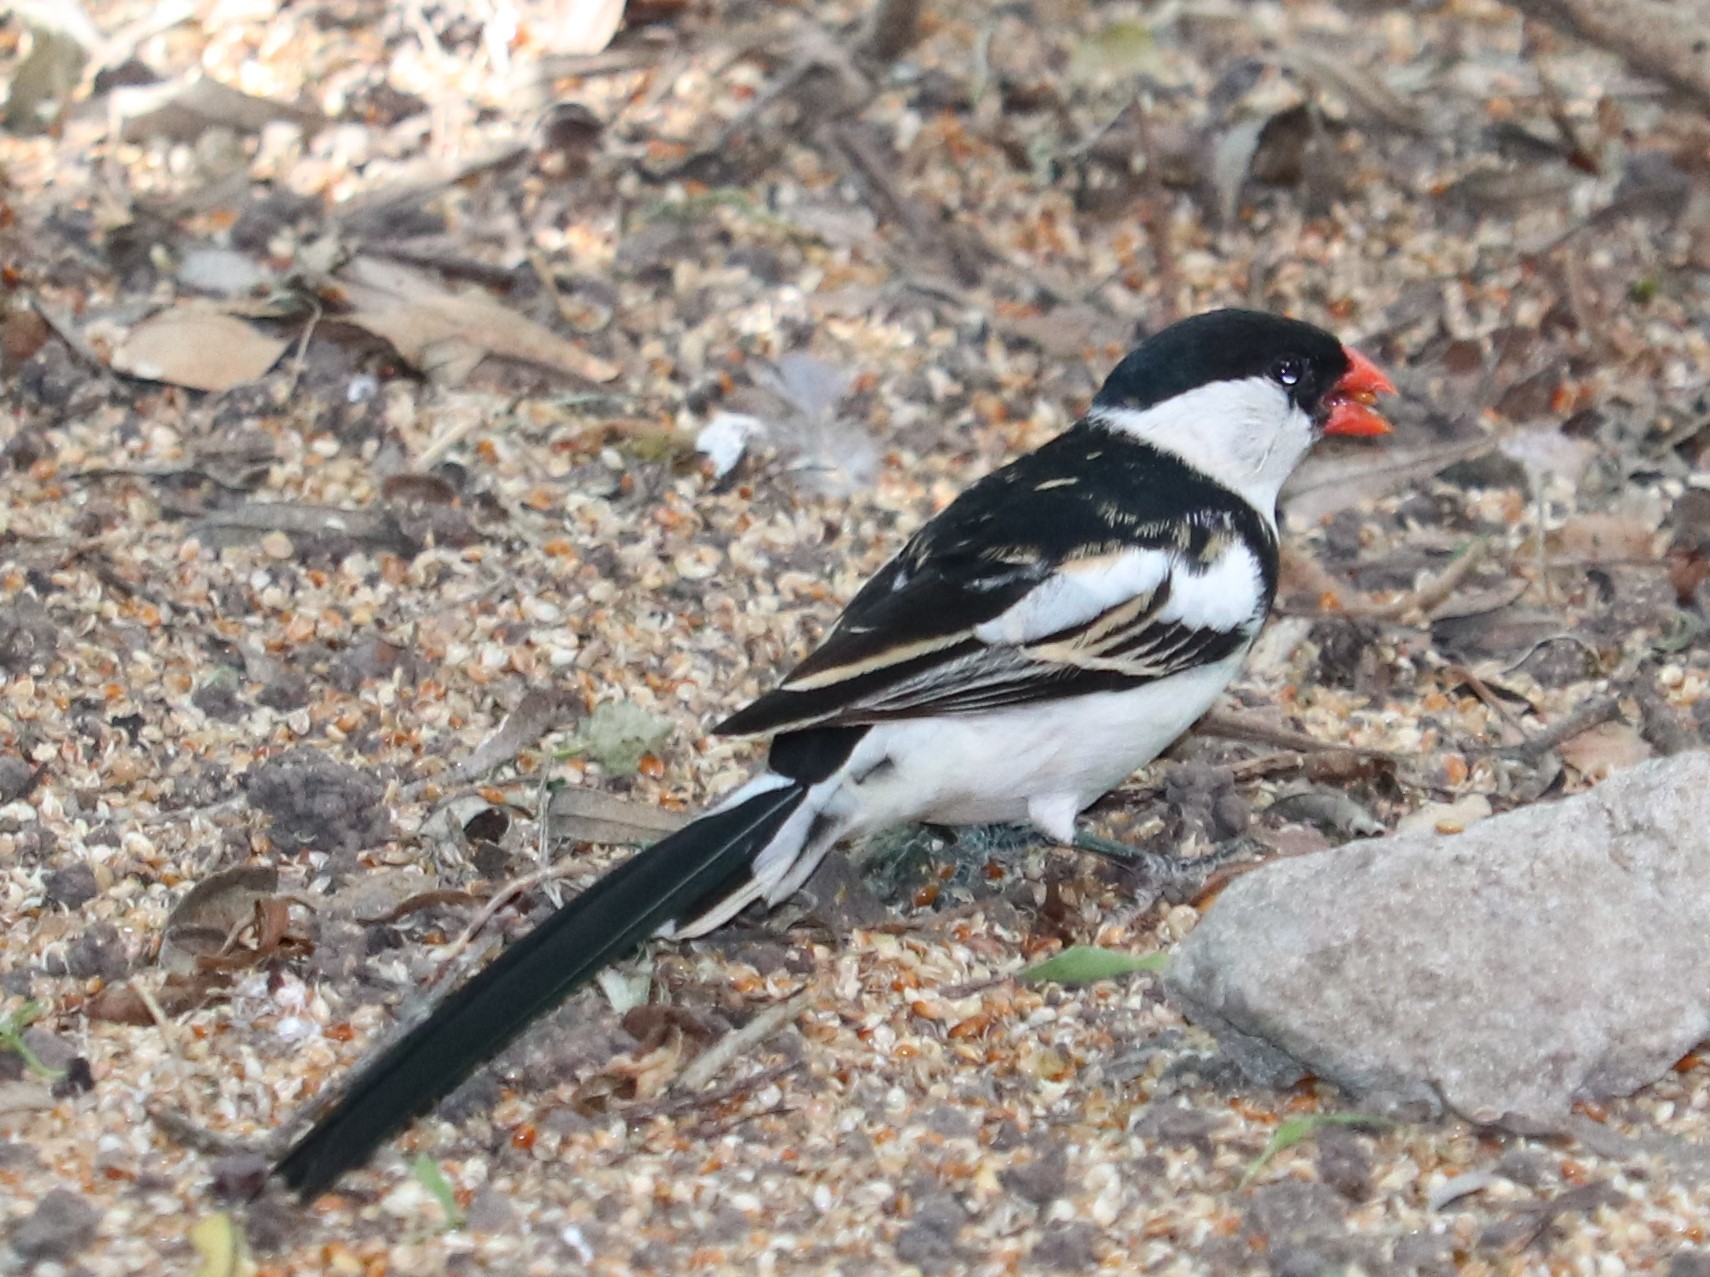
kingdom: Animalia
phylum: Chordata
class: Aves
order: Passeriformes
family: Viduidae
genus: Vidua
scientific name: Vidua macroura
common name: Pin-tailed whydah
